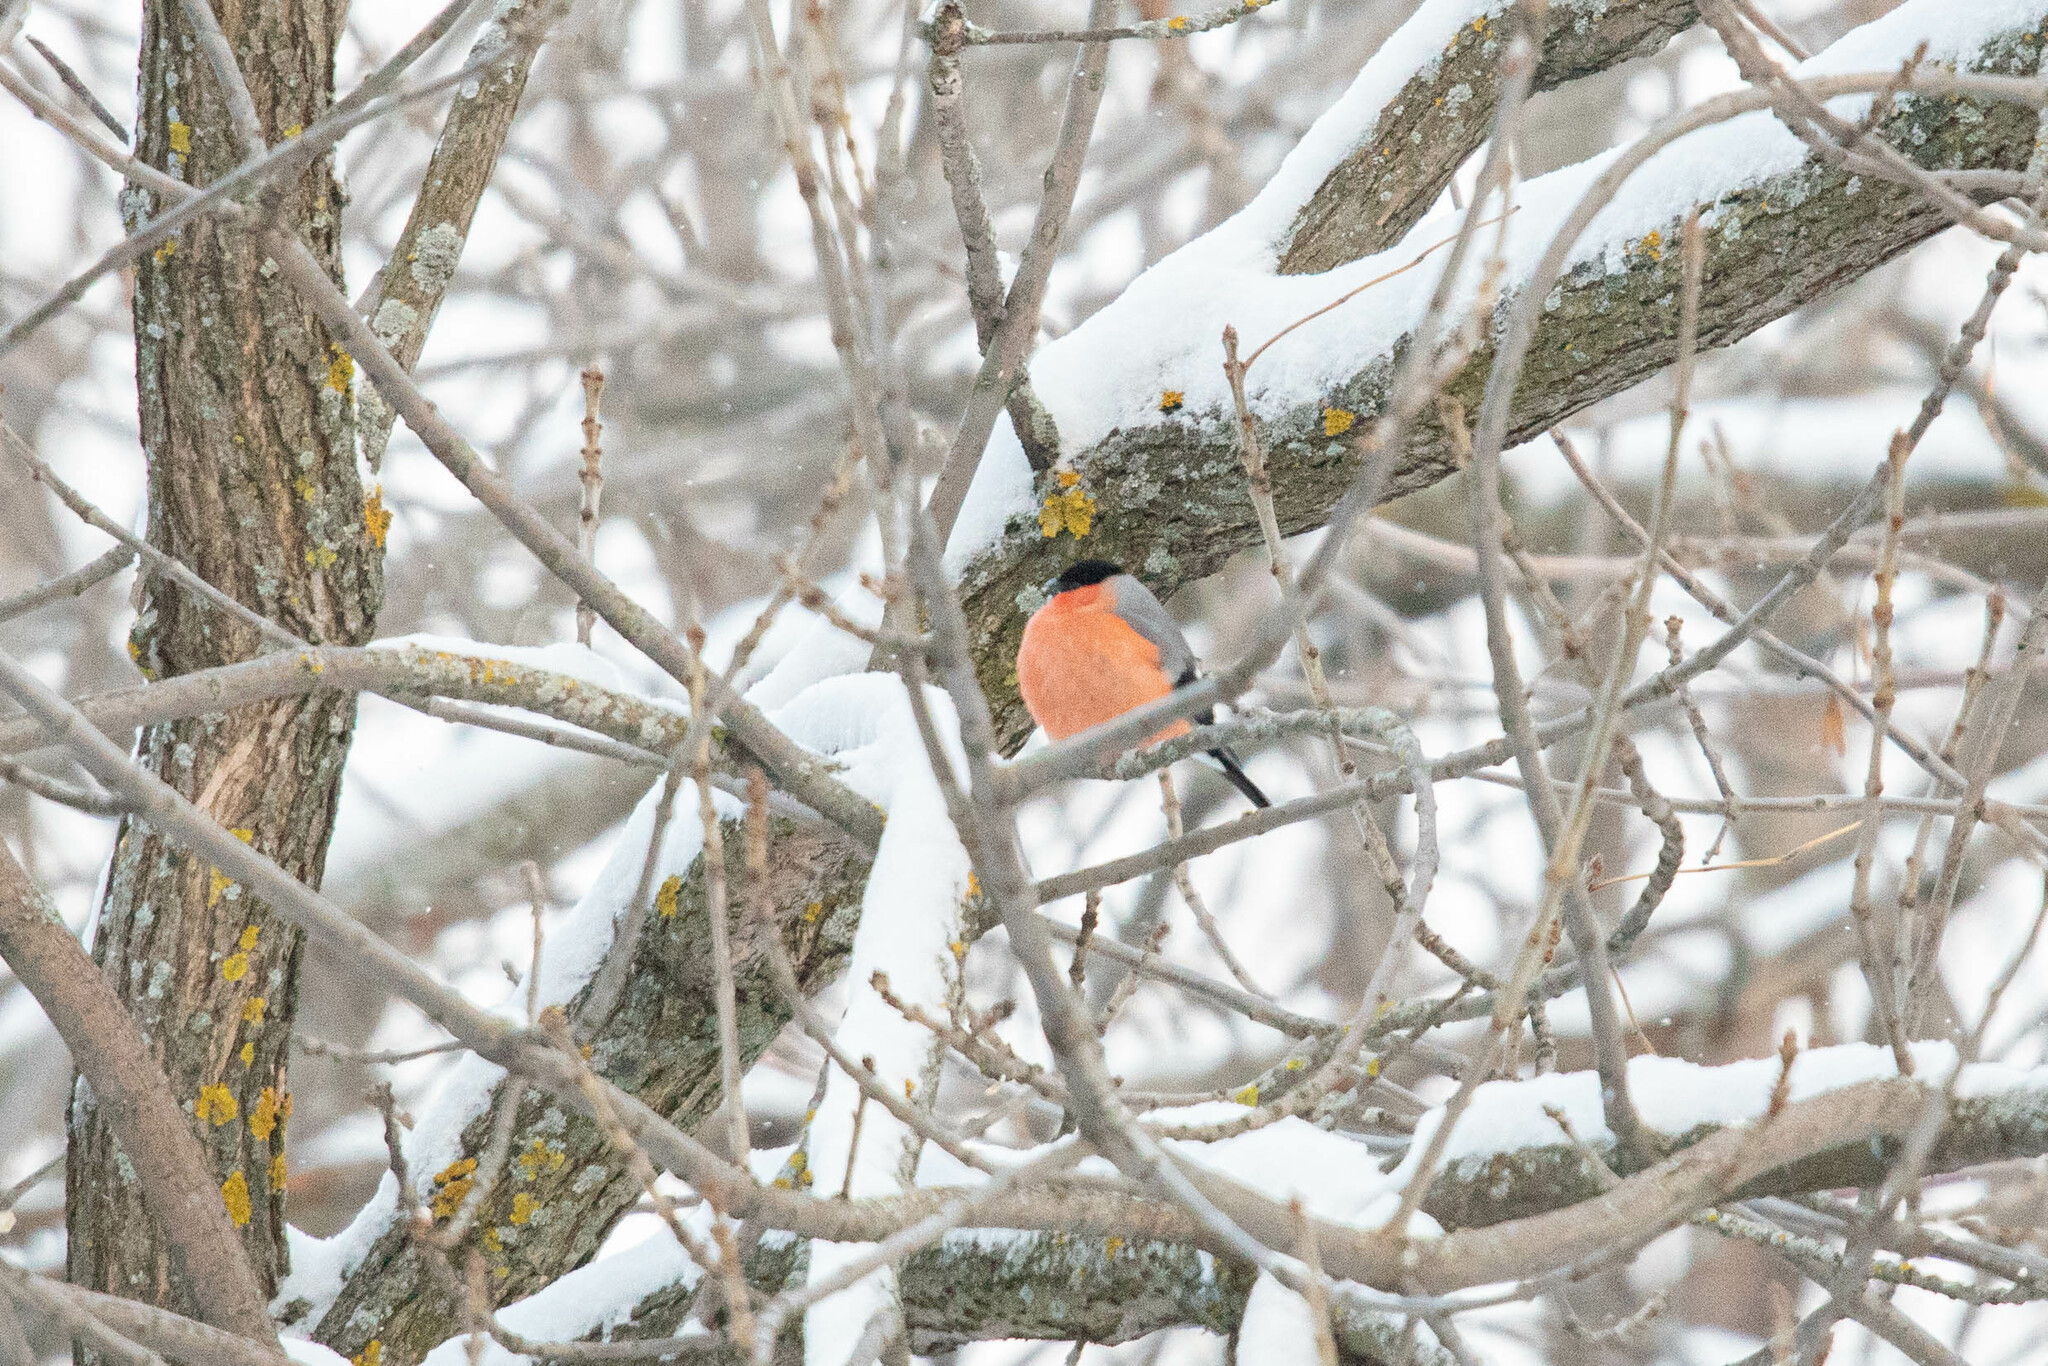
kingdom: Animalia
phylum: Chordata
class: Aves
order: Passeriformes
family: Fringillidae
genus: Pyrrhula
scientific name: Pyrrhula pyrrhula
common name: Eurasian bullfinch
